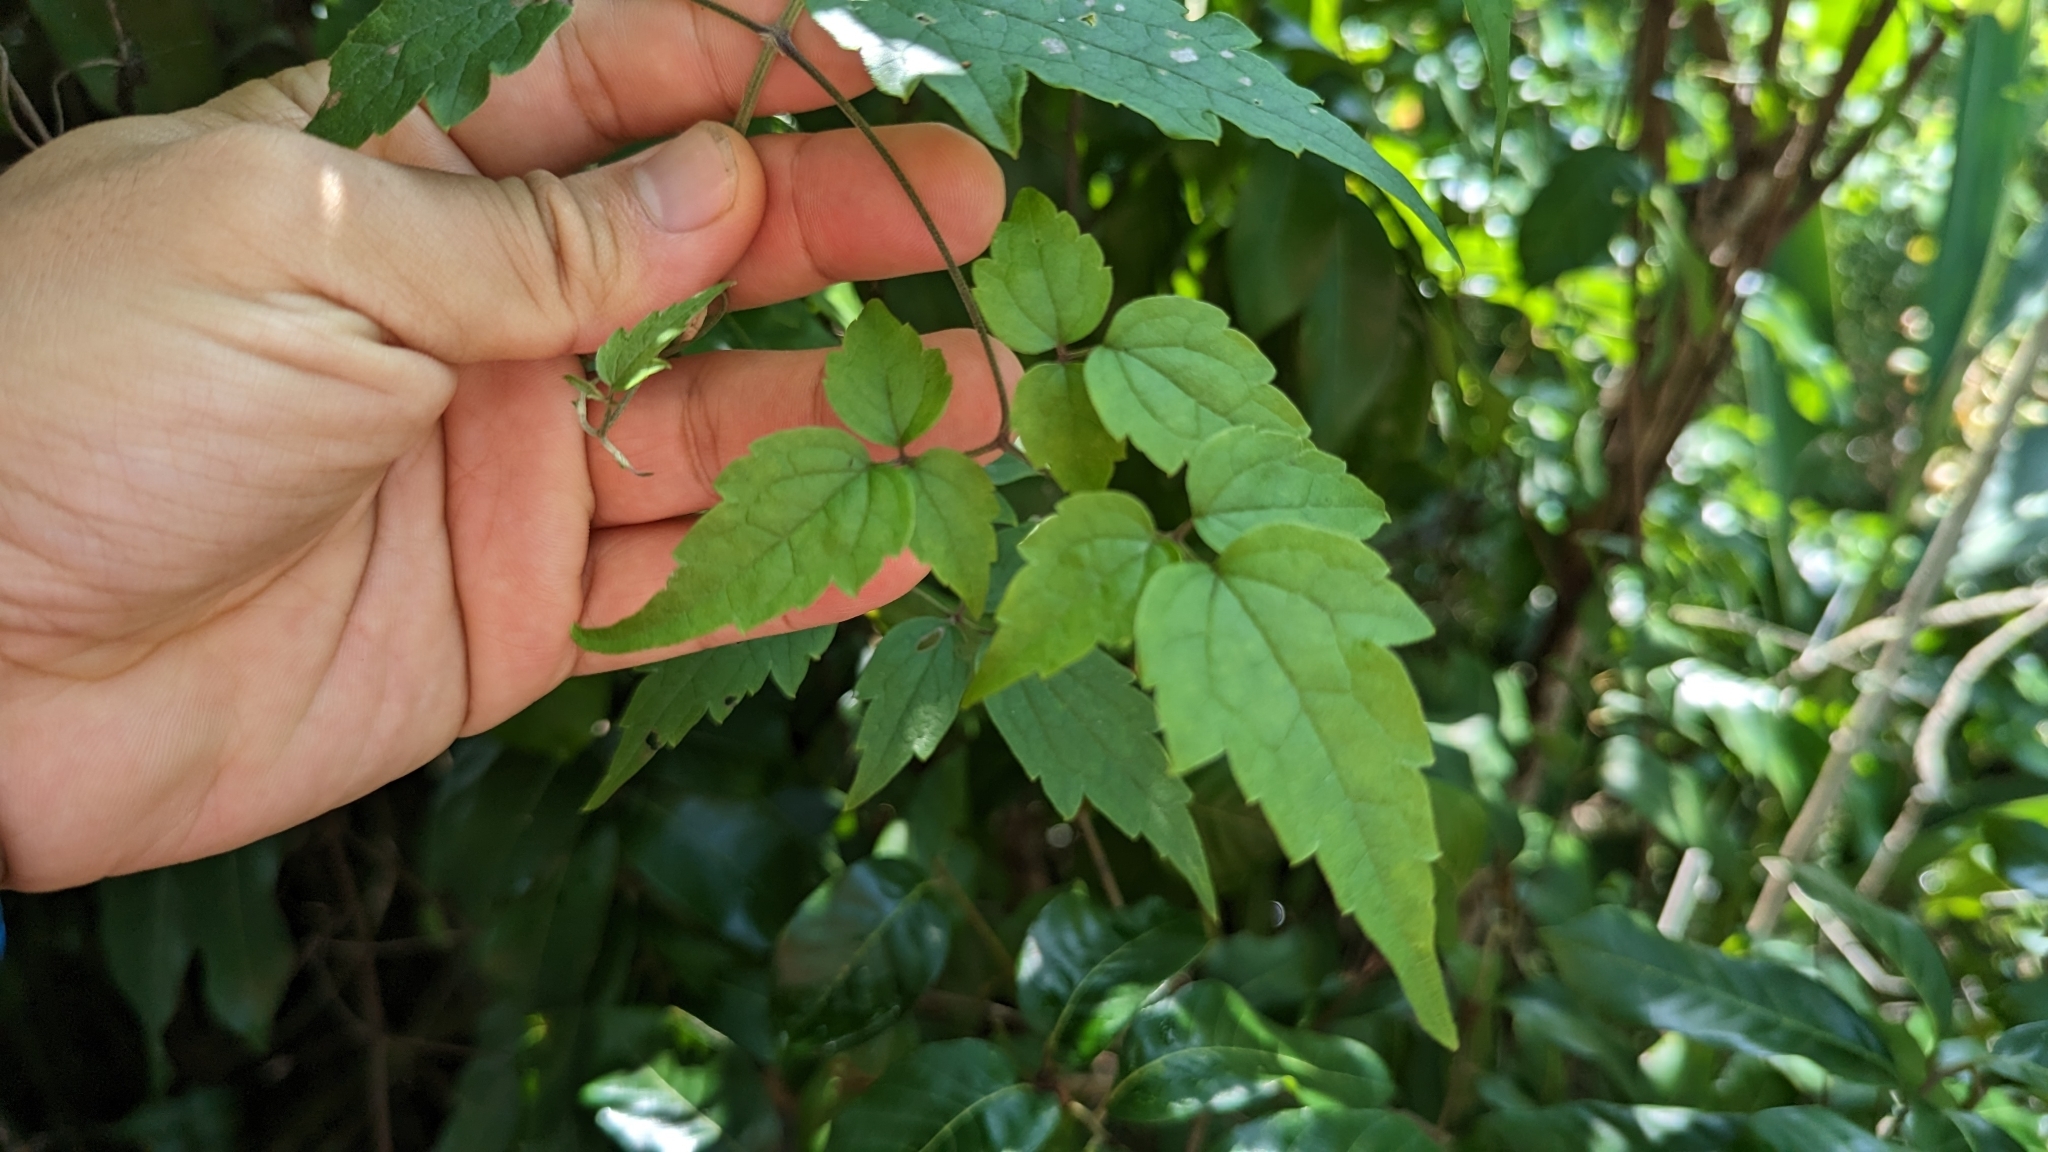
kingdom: Plantae
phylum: Tracheophyta
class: Magnoliopsida
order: Ranunculales
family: Ranunculaceae
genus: Clematis
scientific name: Clematis grata
